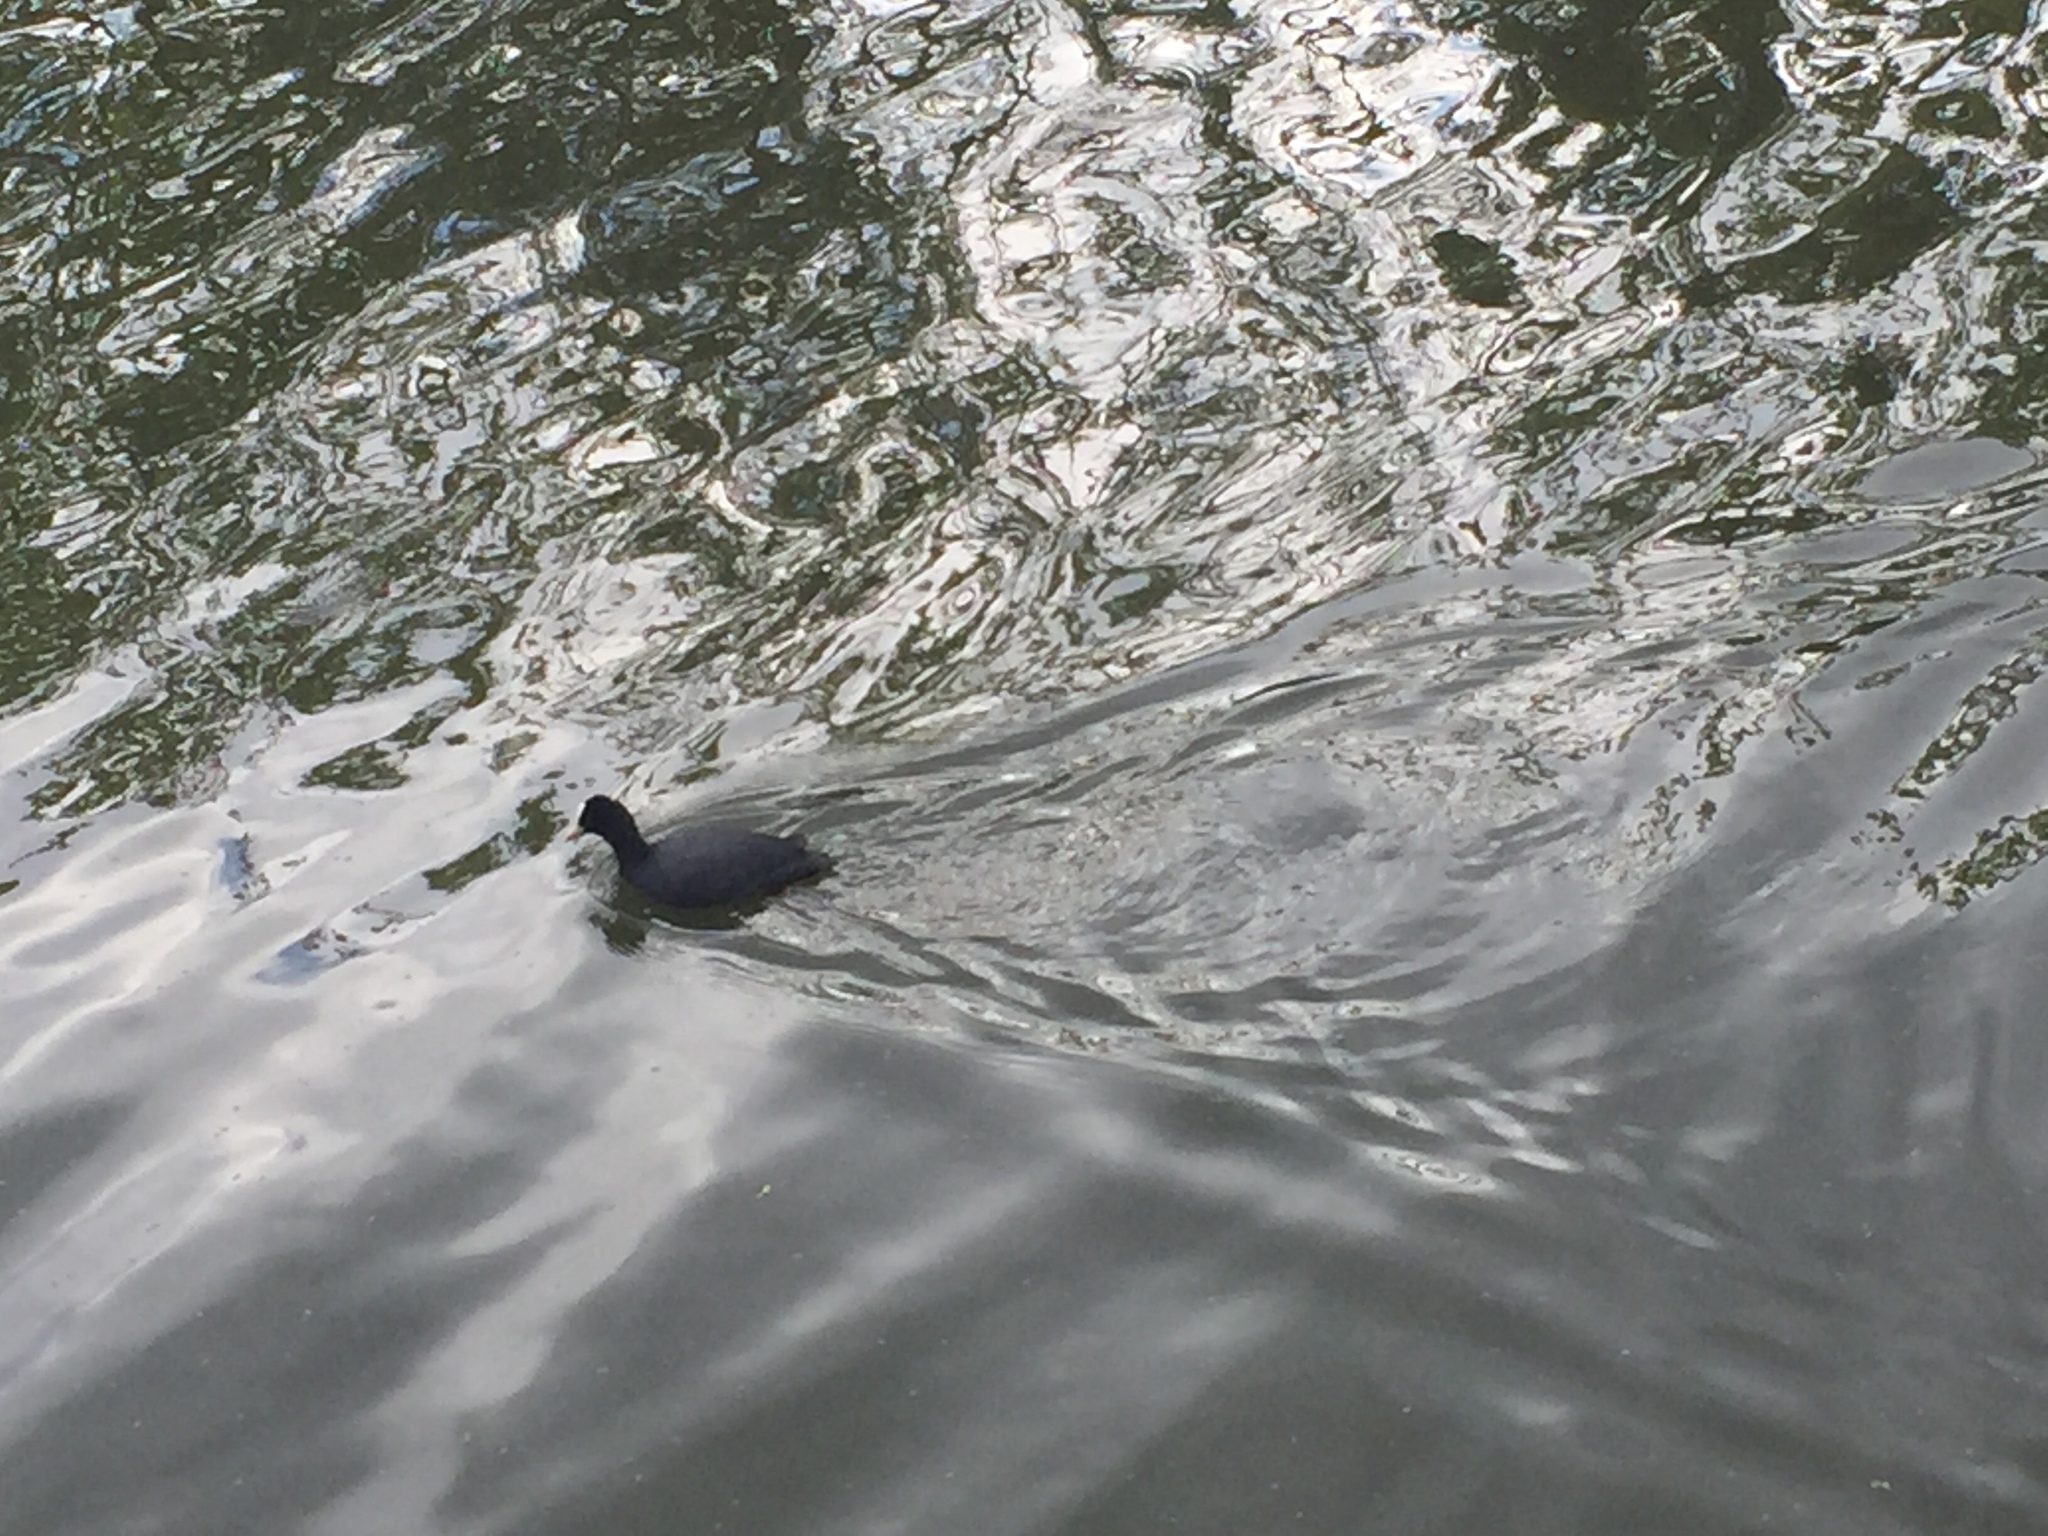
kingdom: Animalia
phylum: Chordata
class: Aves
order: Gruiformes
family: Rallidae
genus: Fulica
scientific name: Fulica atra
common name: Eurasian coot
